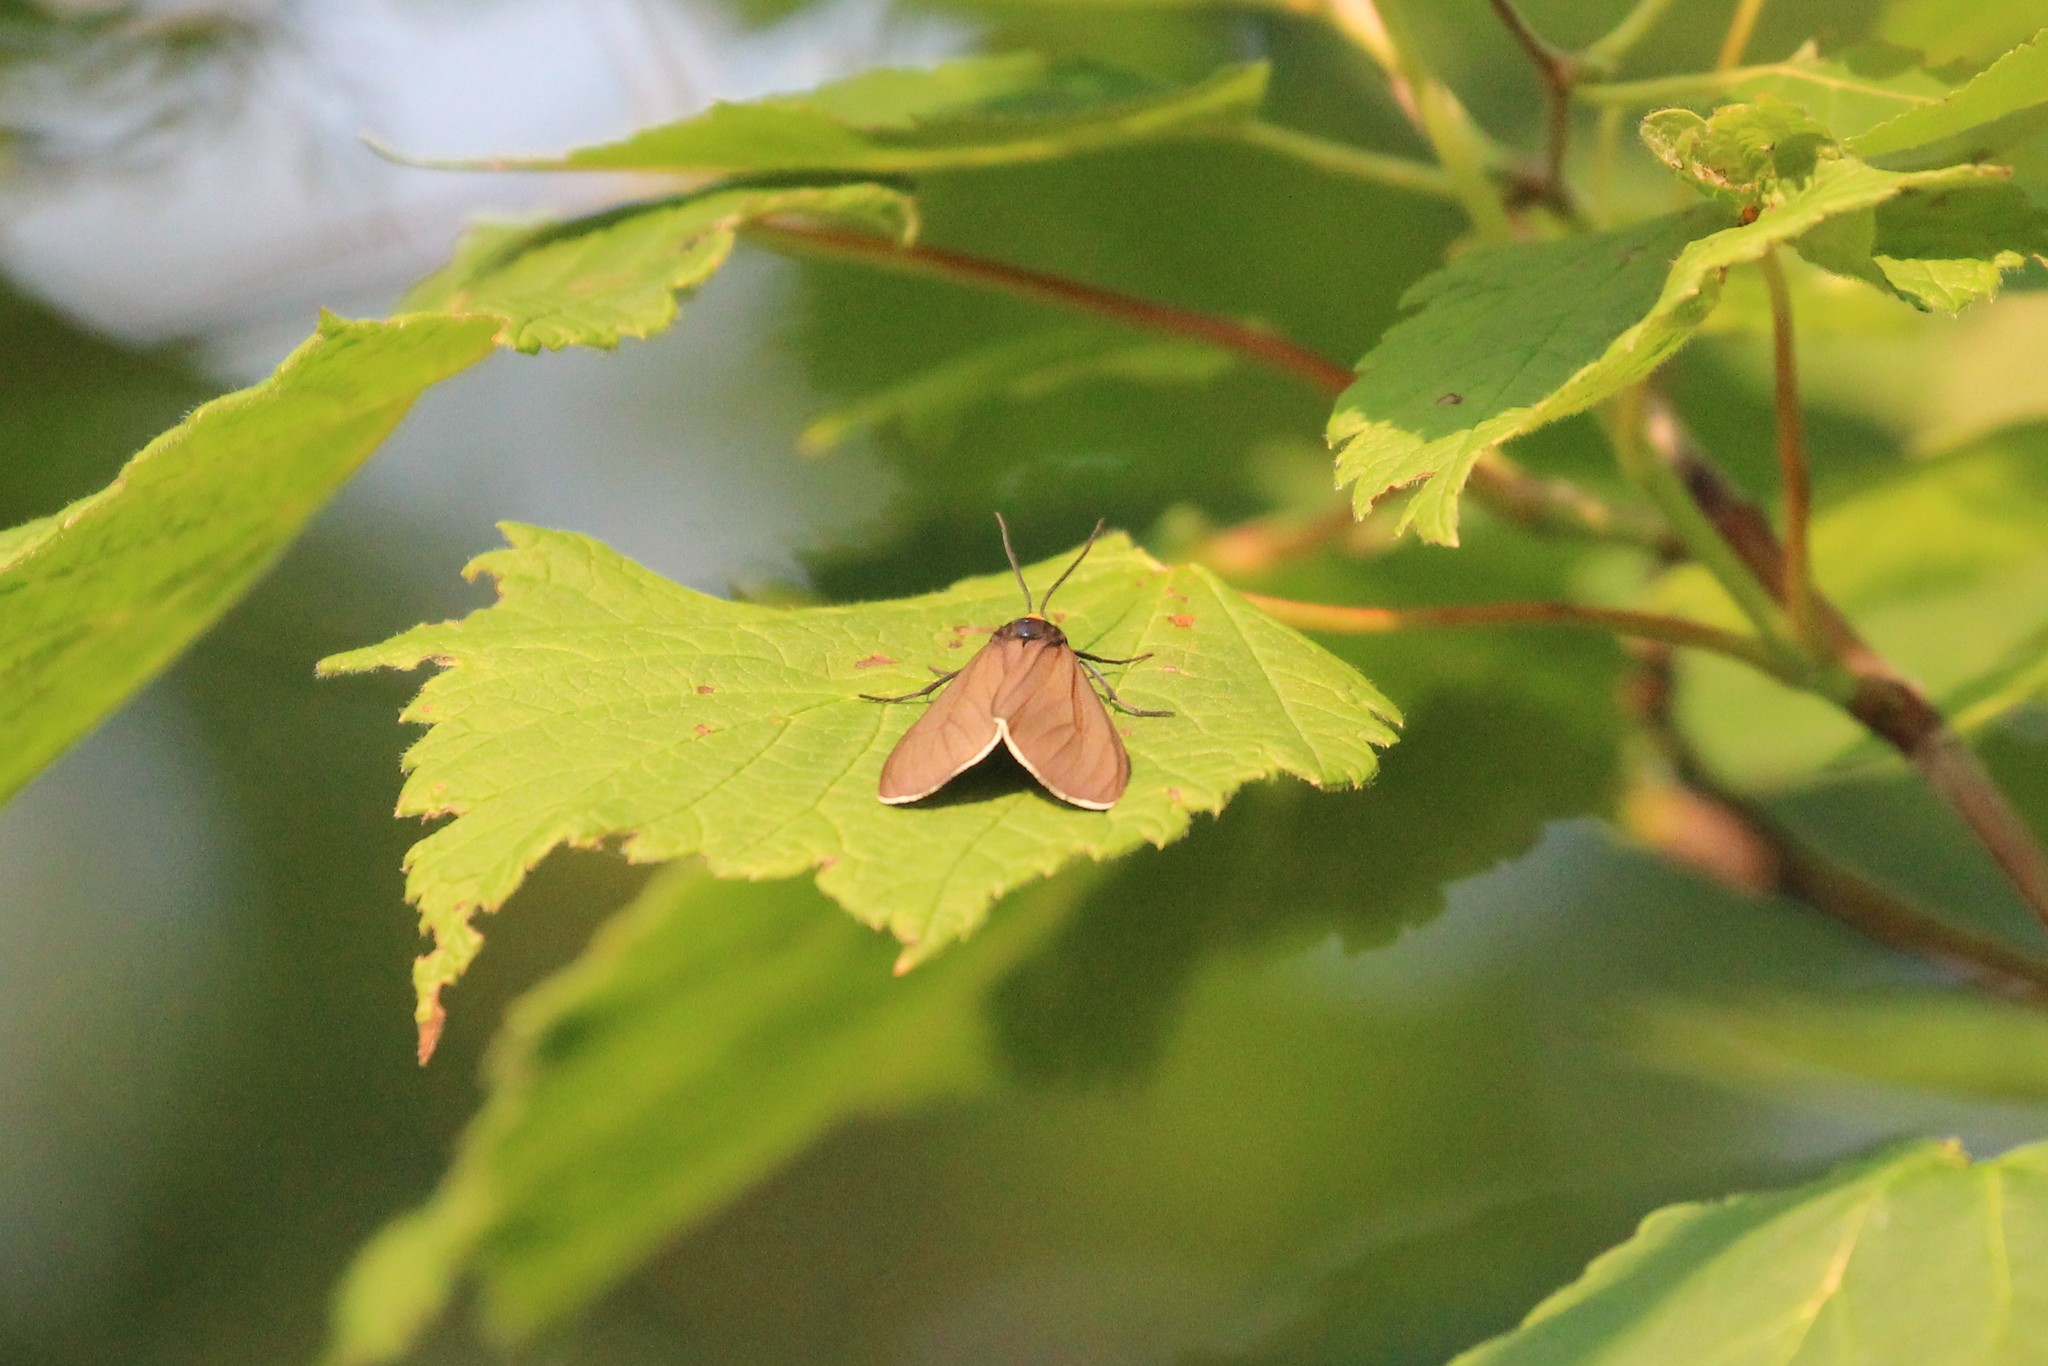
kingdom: Animalia
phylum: Arthropoda
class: Insecta
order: Lepidoptera
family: Erebidae
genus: Ctenucha
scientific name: Ctenucha virginica
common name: Virginia ctenucha moth
